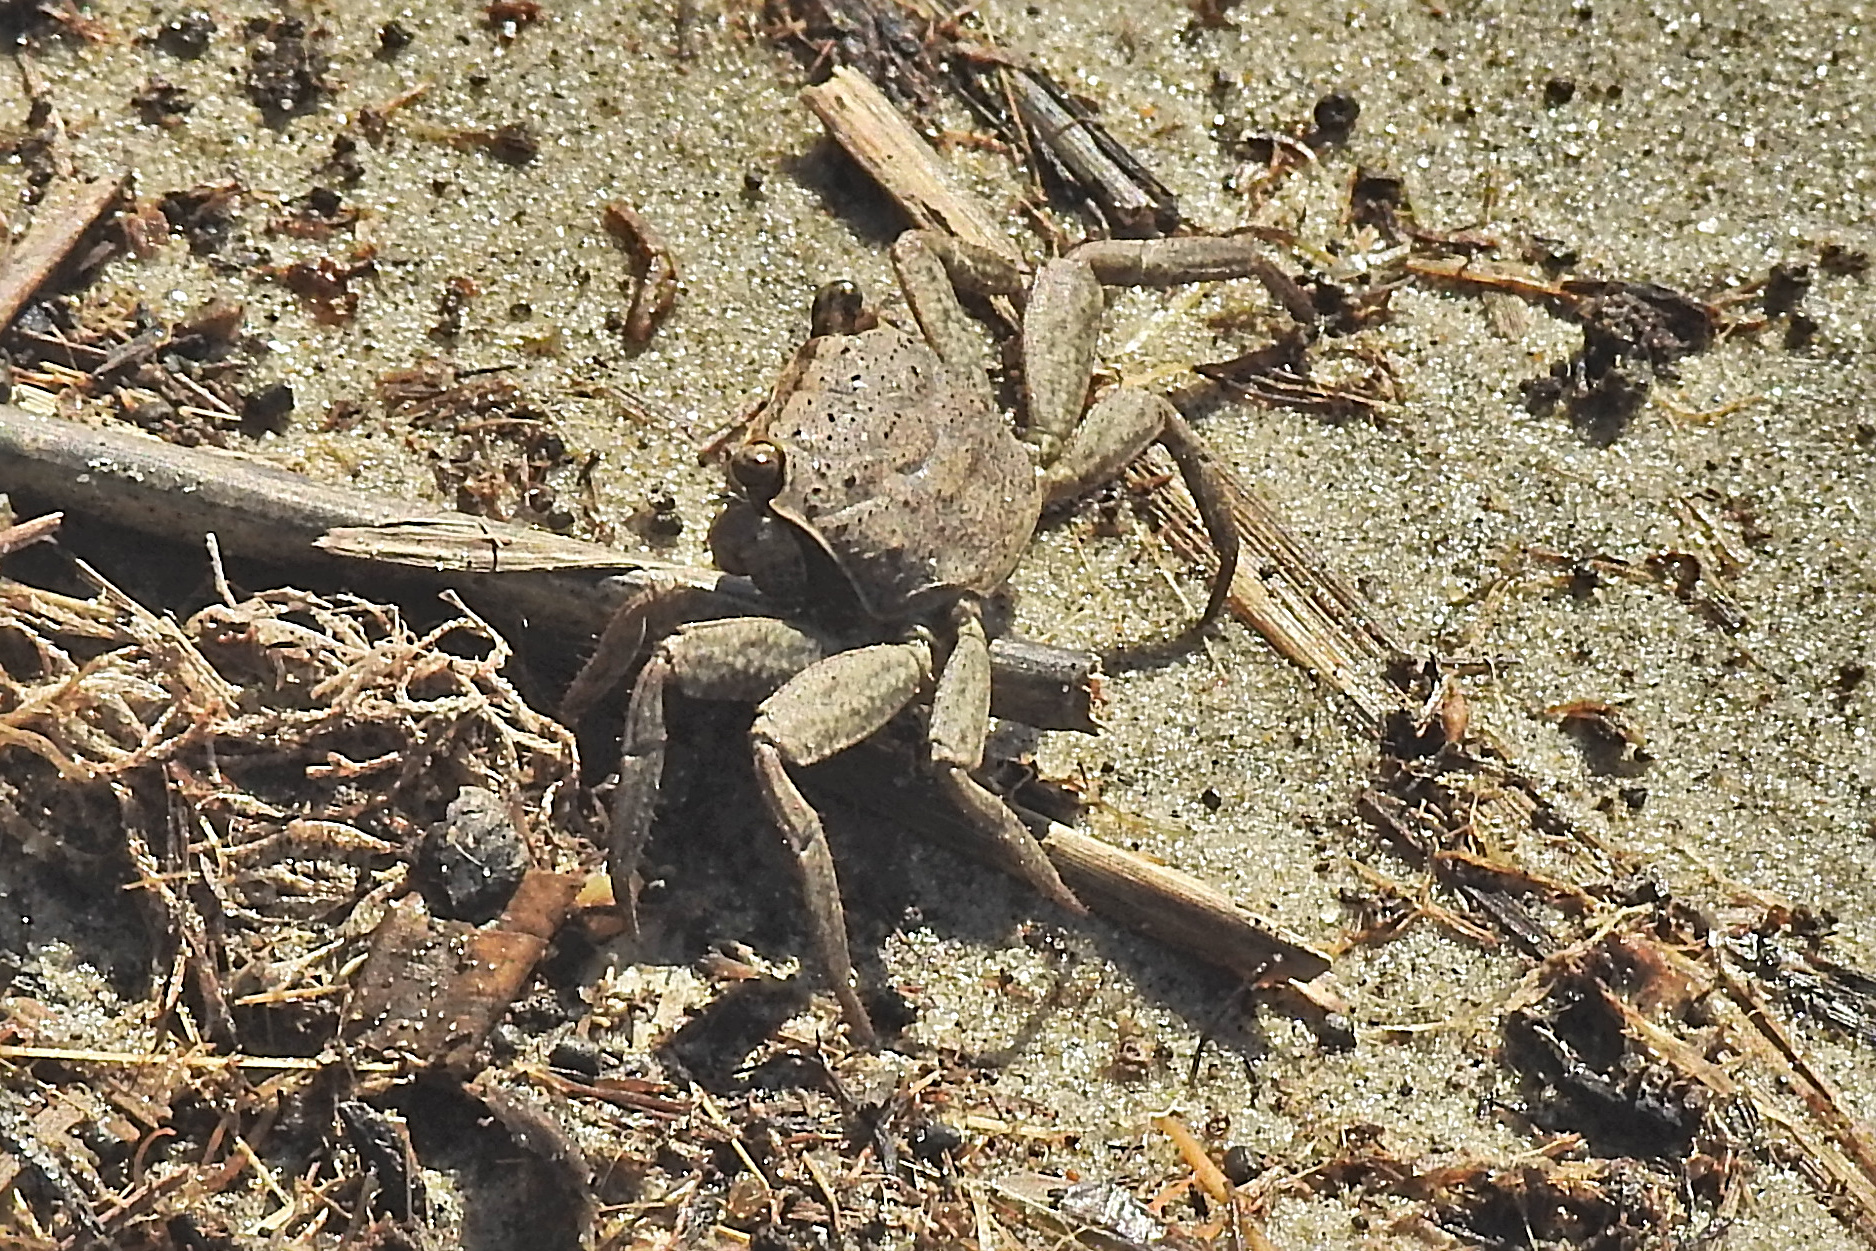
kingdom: Animalia
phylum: Arthropoda
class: Malacostraca
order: Decapoda
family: Sesarmidae
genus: Armases
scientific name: Armases cinereum
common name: Squareback marsh crab
